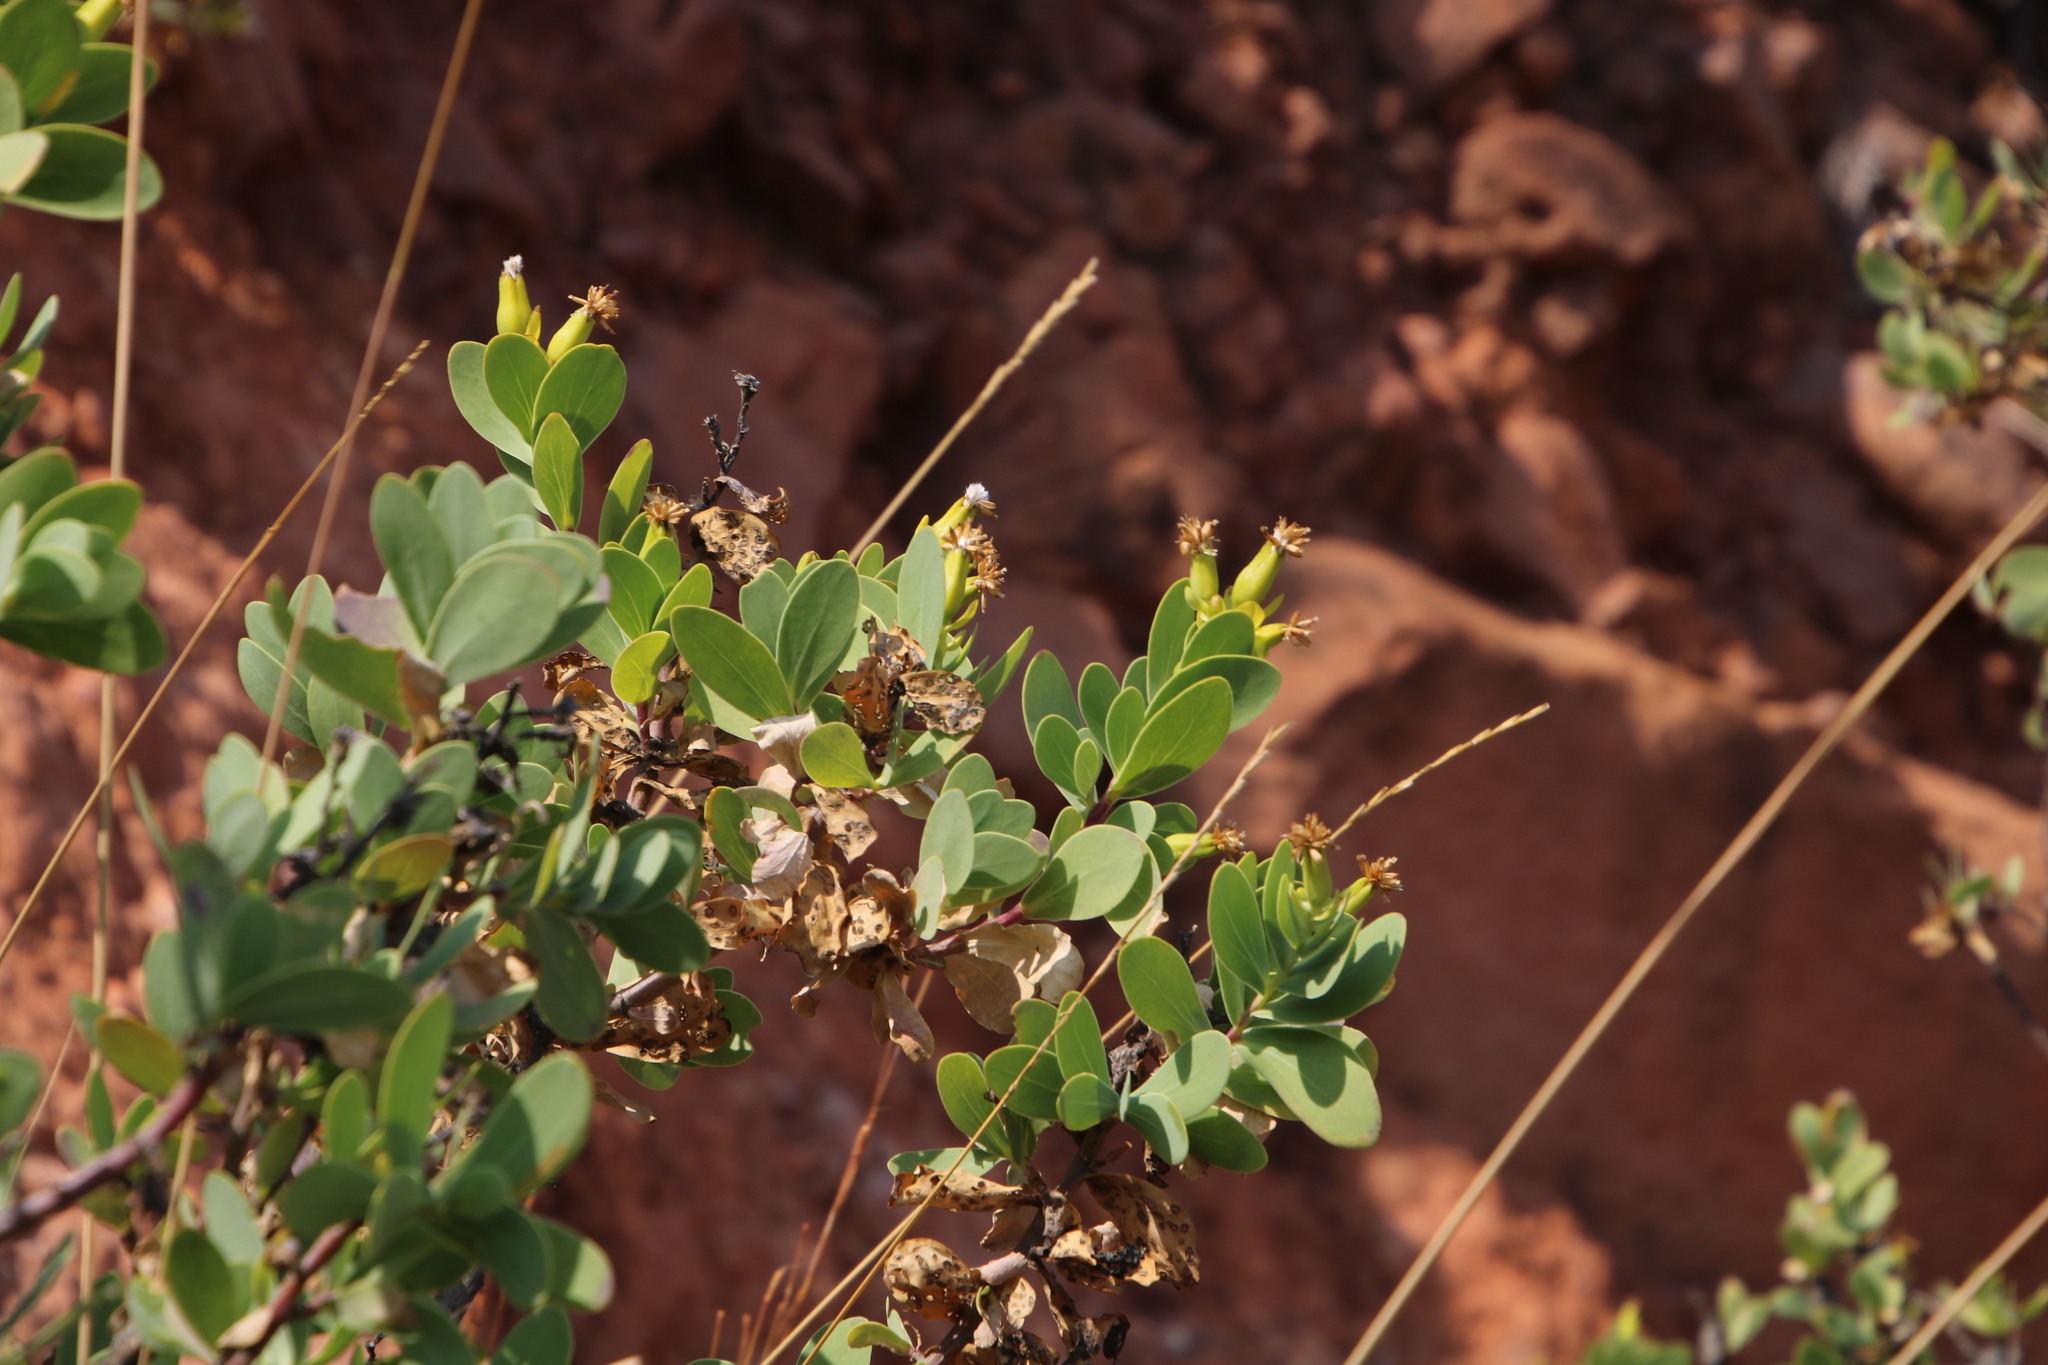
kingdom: Plantae
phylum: Tracheophyta
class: Magnoliopsida
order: Asterales
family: Asteraceae
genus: Lopholaena
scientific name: Lopholaena coriifolia
